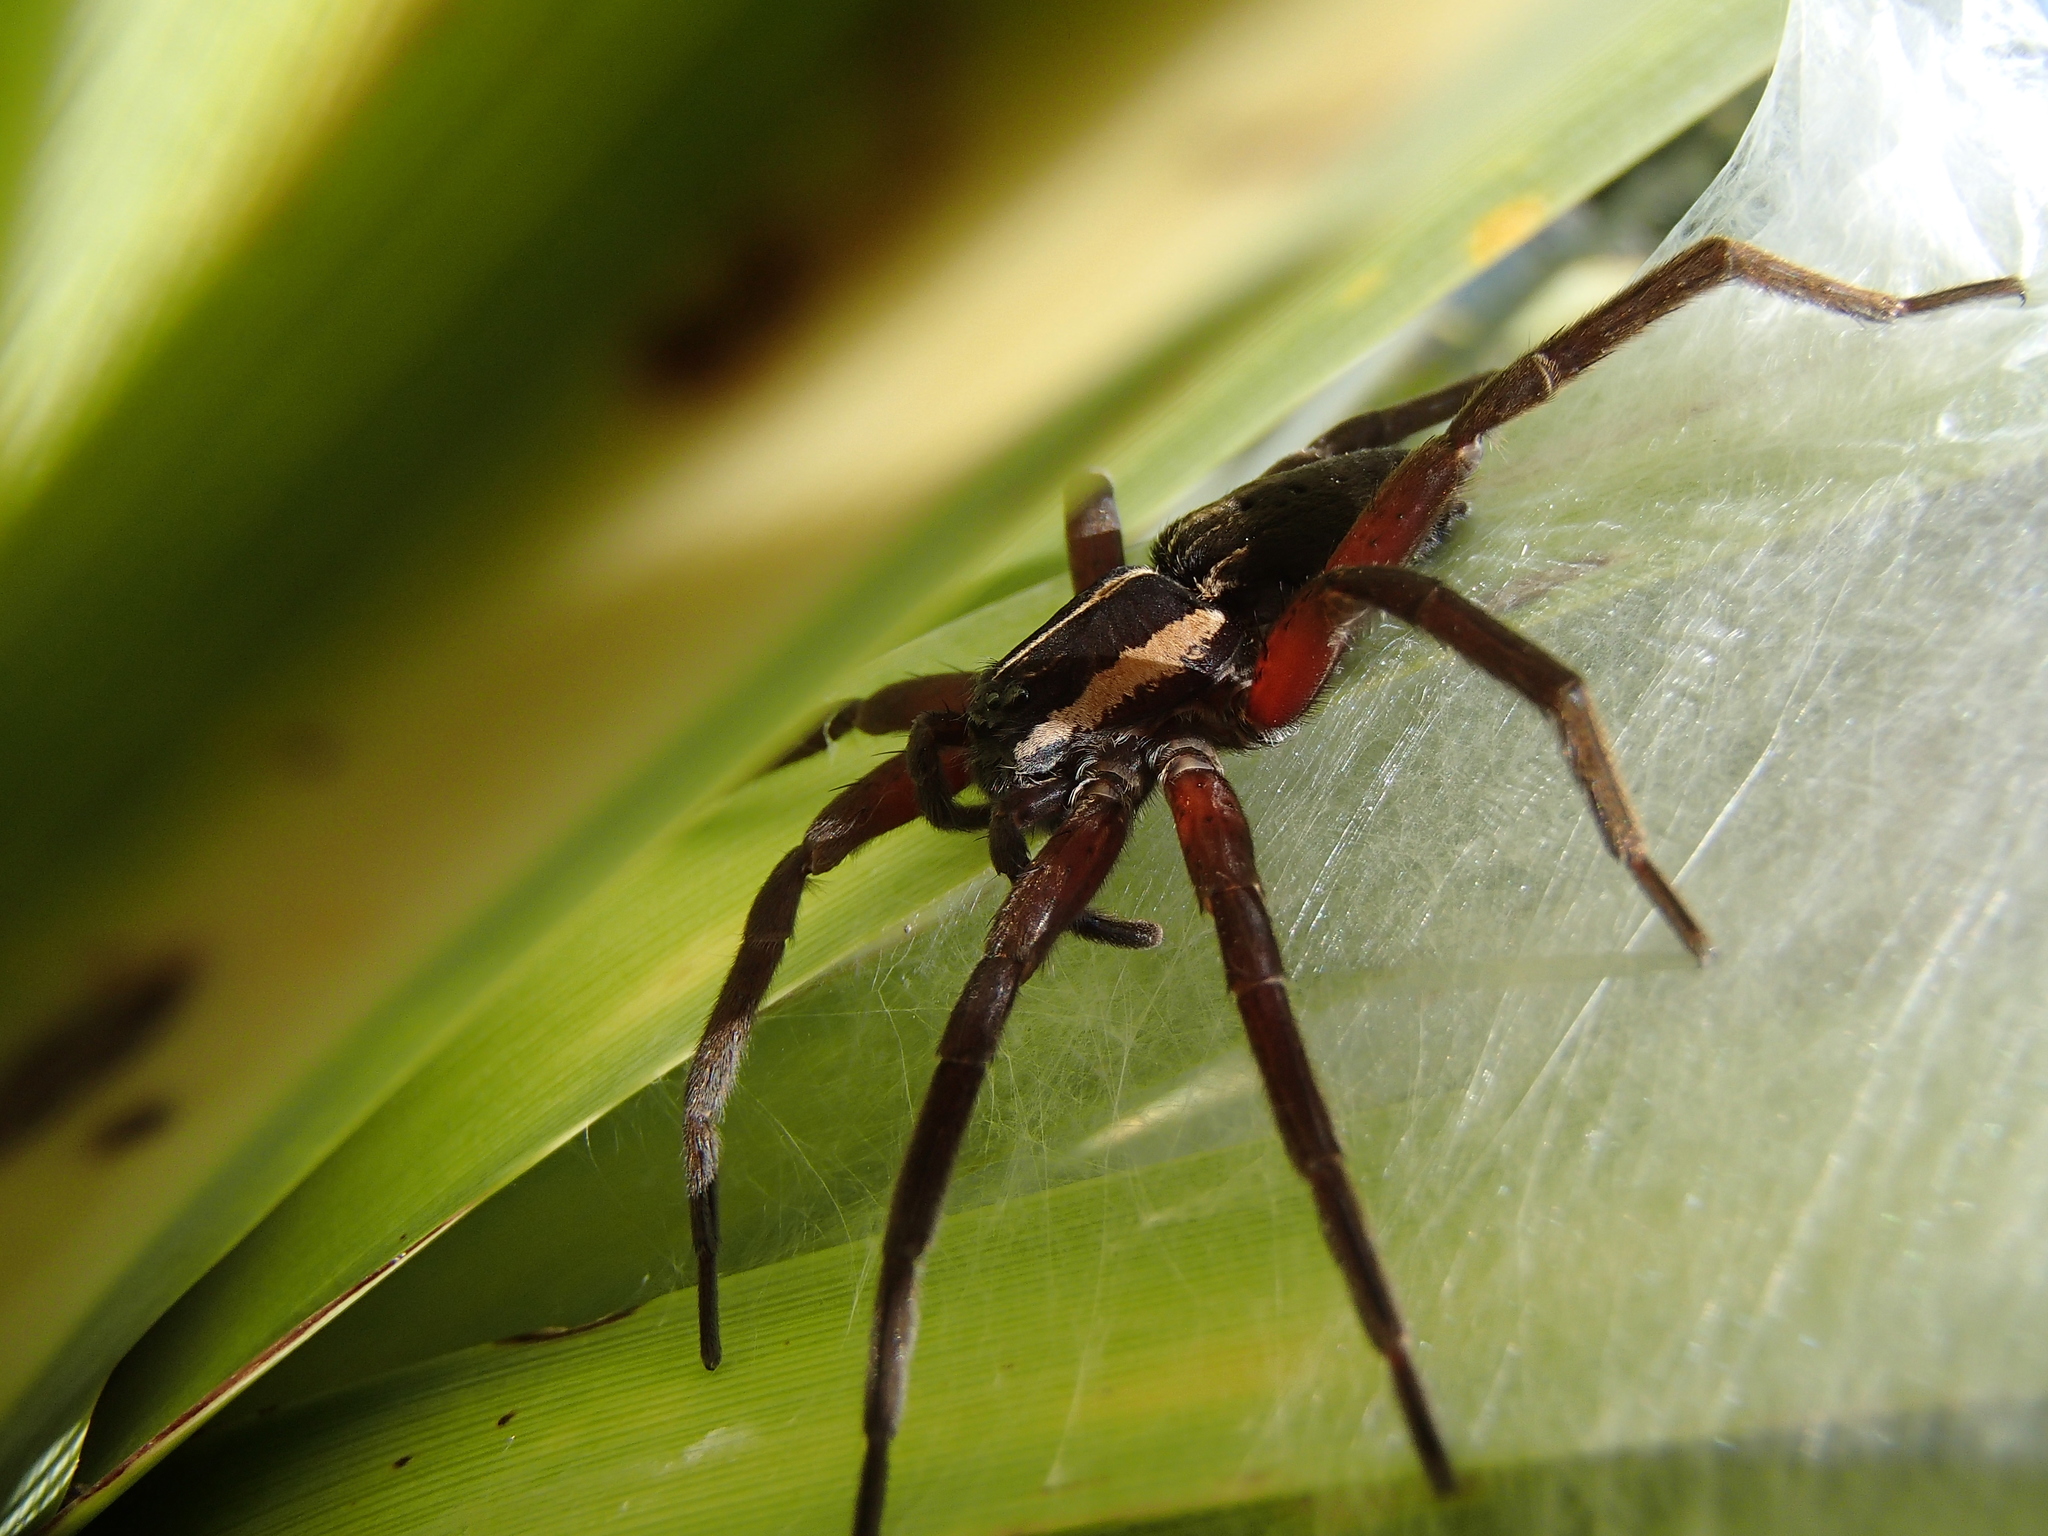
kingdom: Animalia
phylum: Arthropoda
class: Arachnida
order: Araneae
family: Pisauridae
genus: Dolomedes
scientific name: Dolomedes minor
